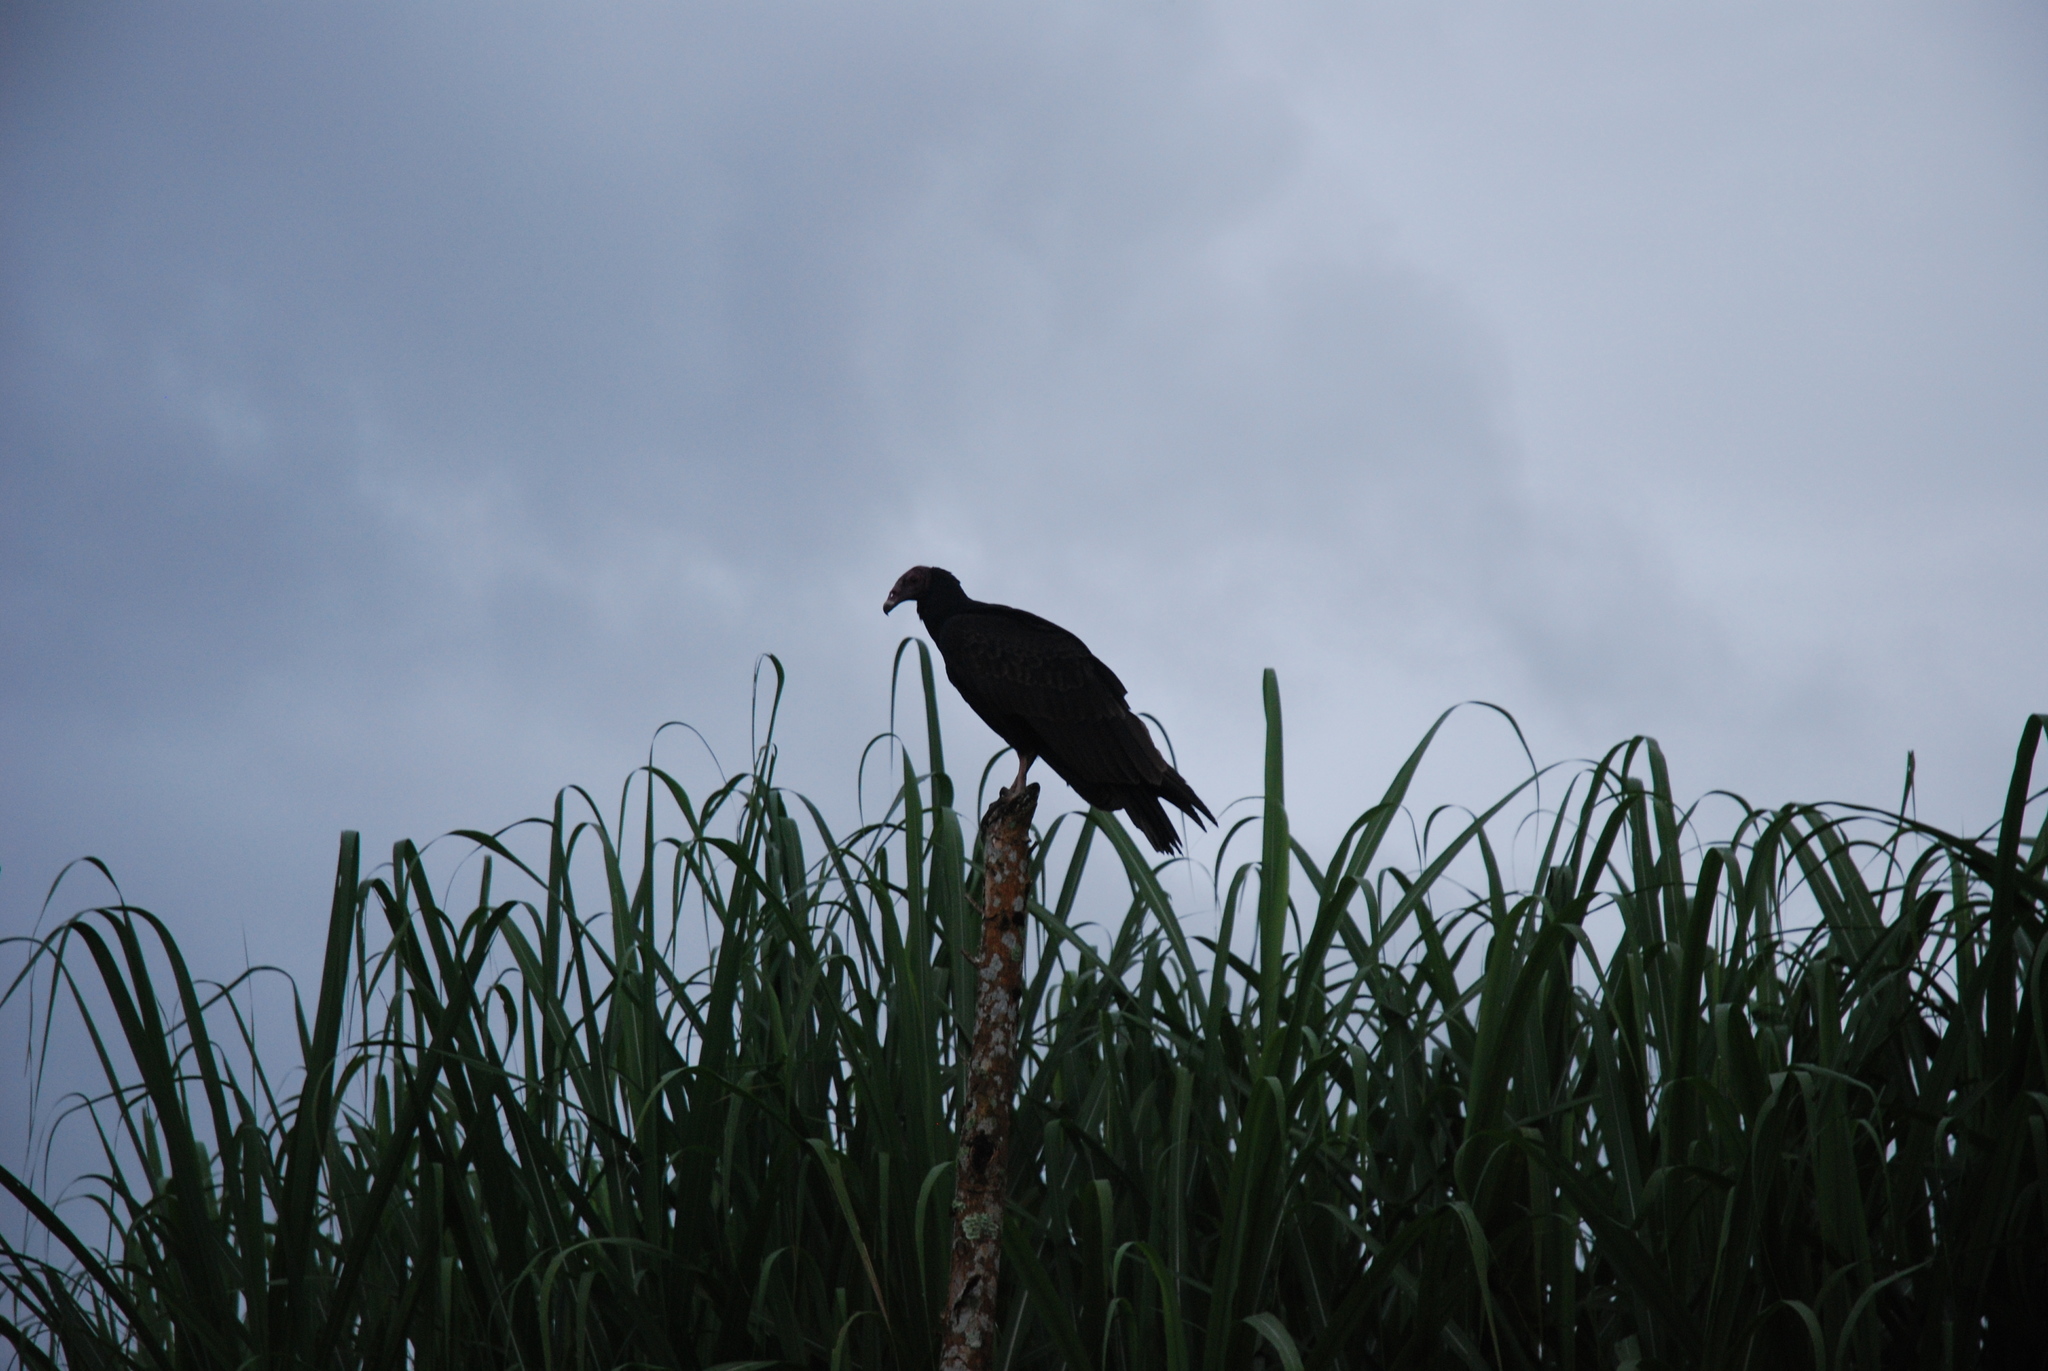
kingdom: Animalia
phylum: Chordata
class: Aves
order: Accipitriformes
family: Cathartidae
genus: Cathartes
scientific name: Cathartes aura
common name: Turkey vulture
